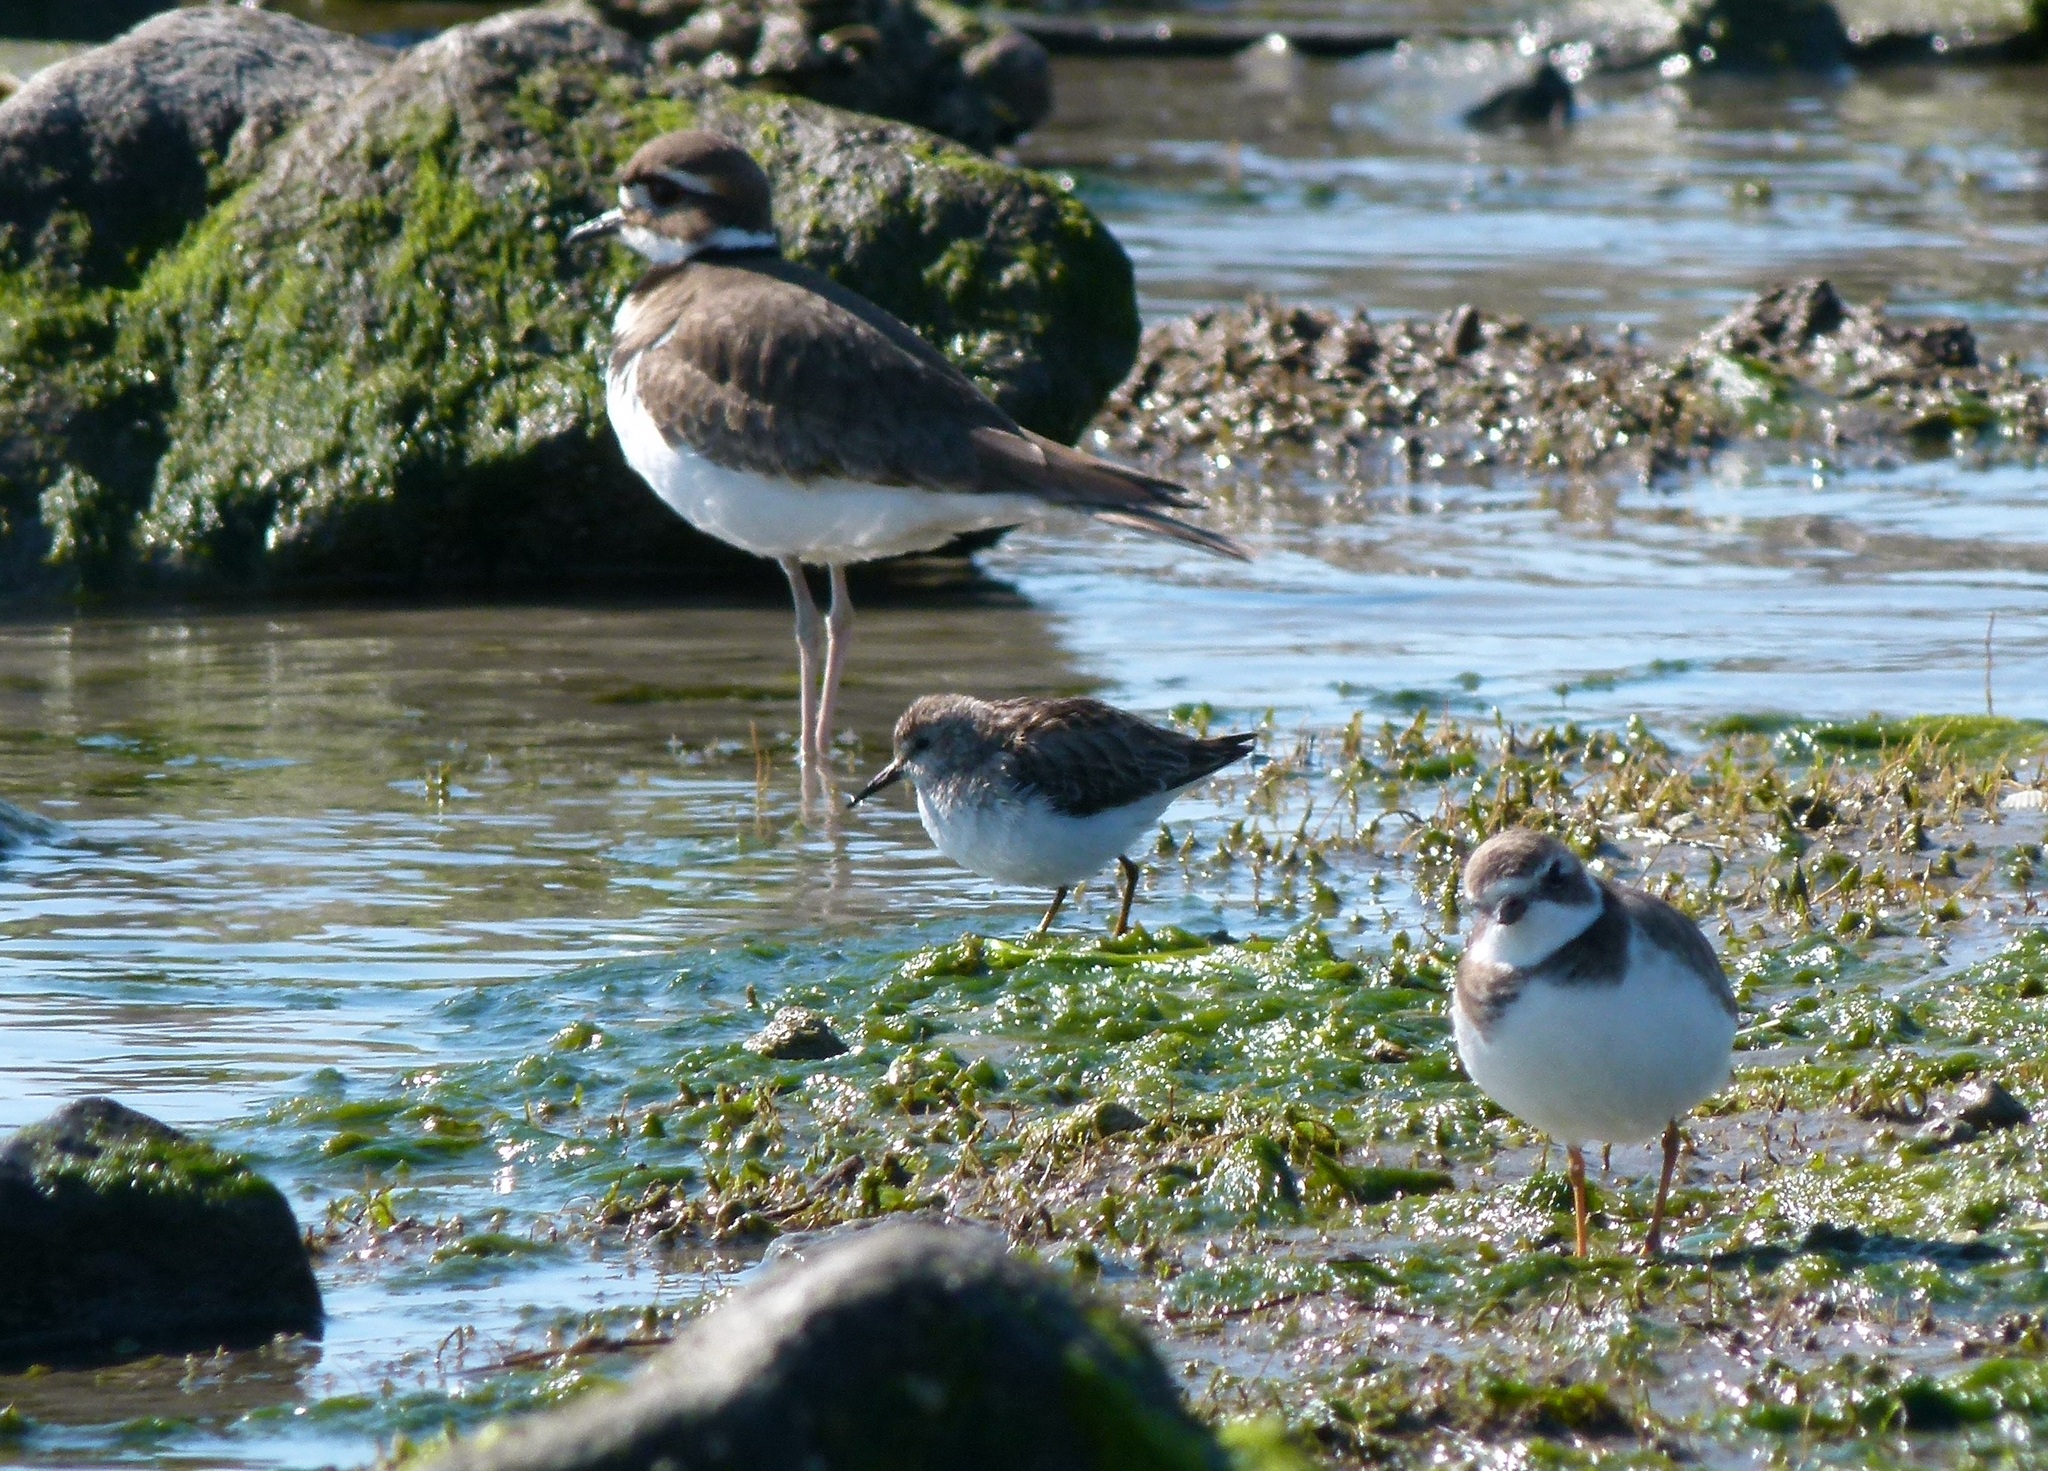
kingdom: Animalia
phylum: Chordata
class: Aves
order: Charadriiformes
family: Scolopacidae
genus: Calidris
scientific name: Calidris minutilla
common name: Least sandpiper
